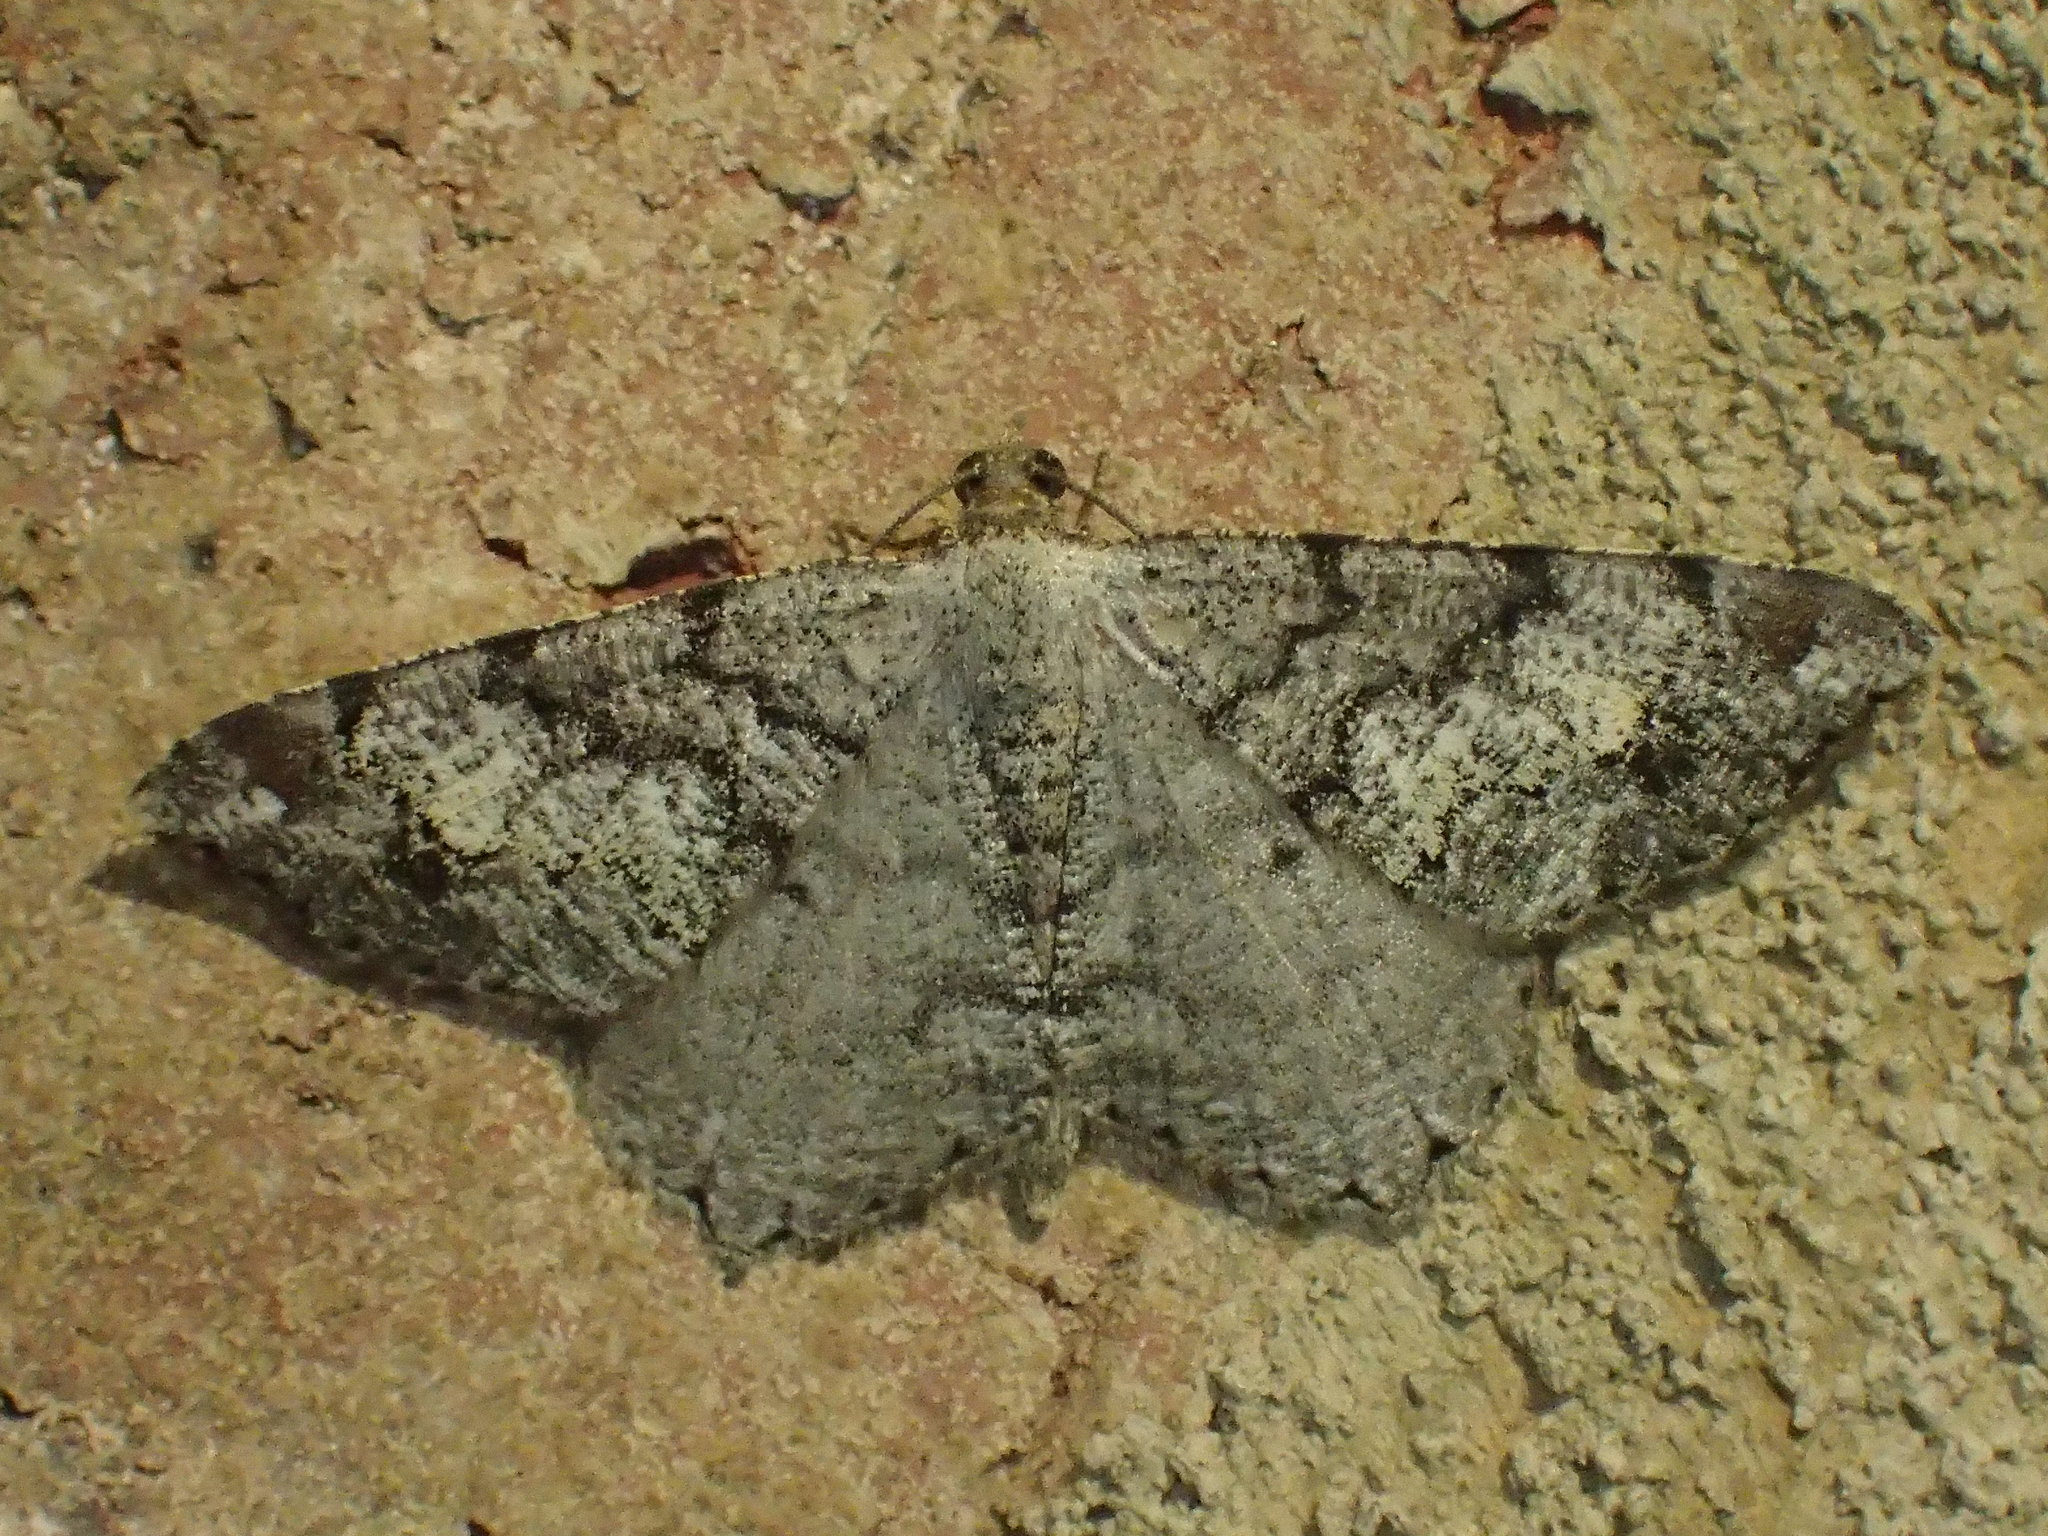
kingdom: Animalia
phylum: Arthropoda
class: Insecta
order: Lepidoptera
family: Geometridae
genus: Macaria
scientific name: Macaria granitata
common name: Granite moth
